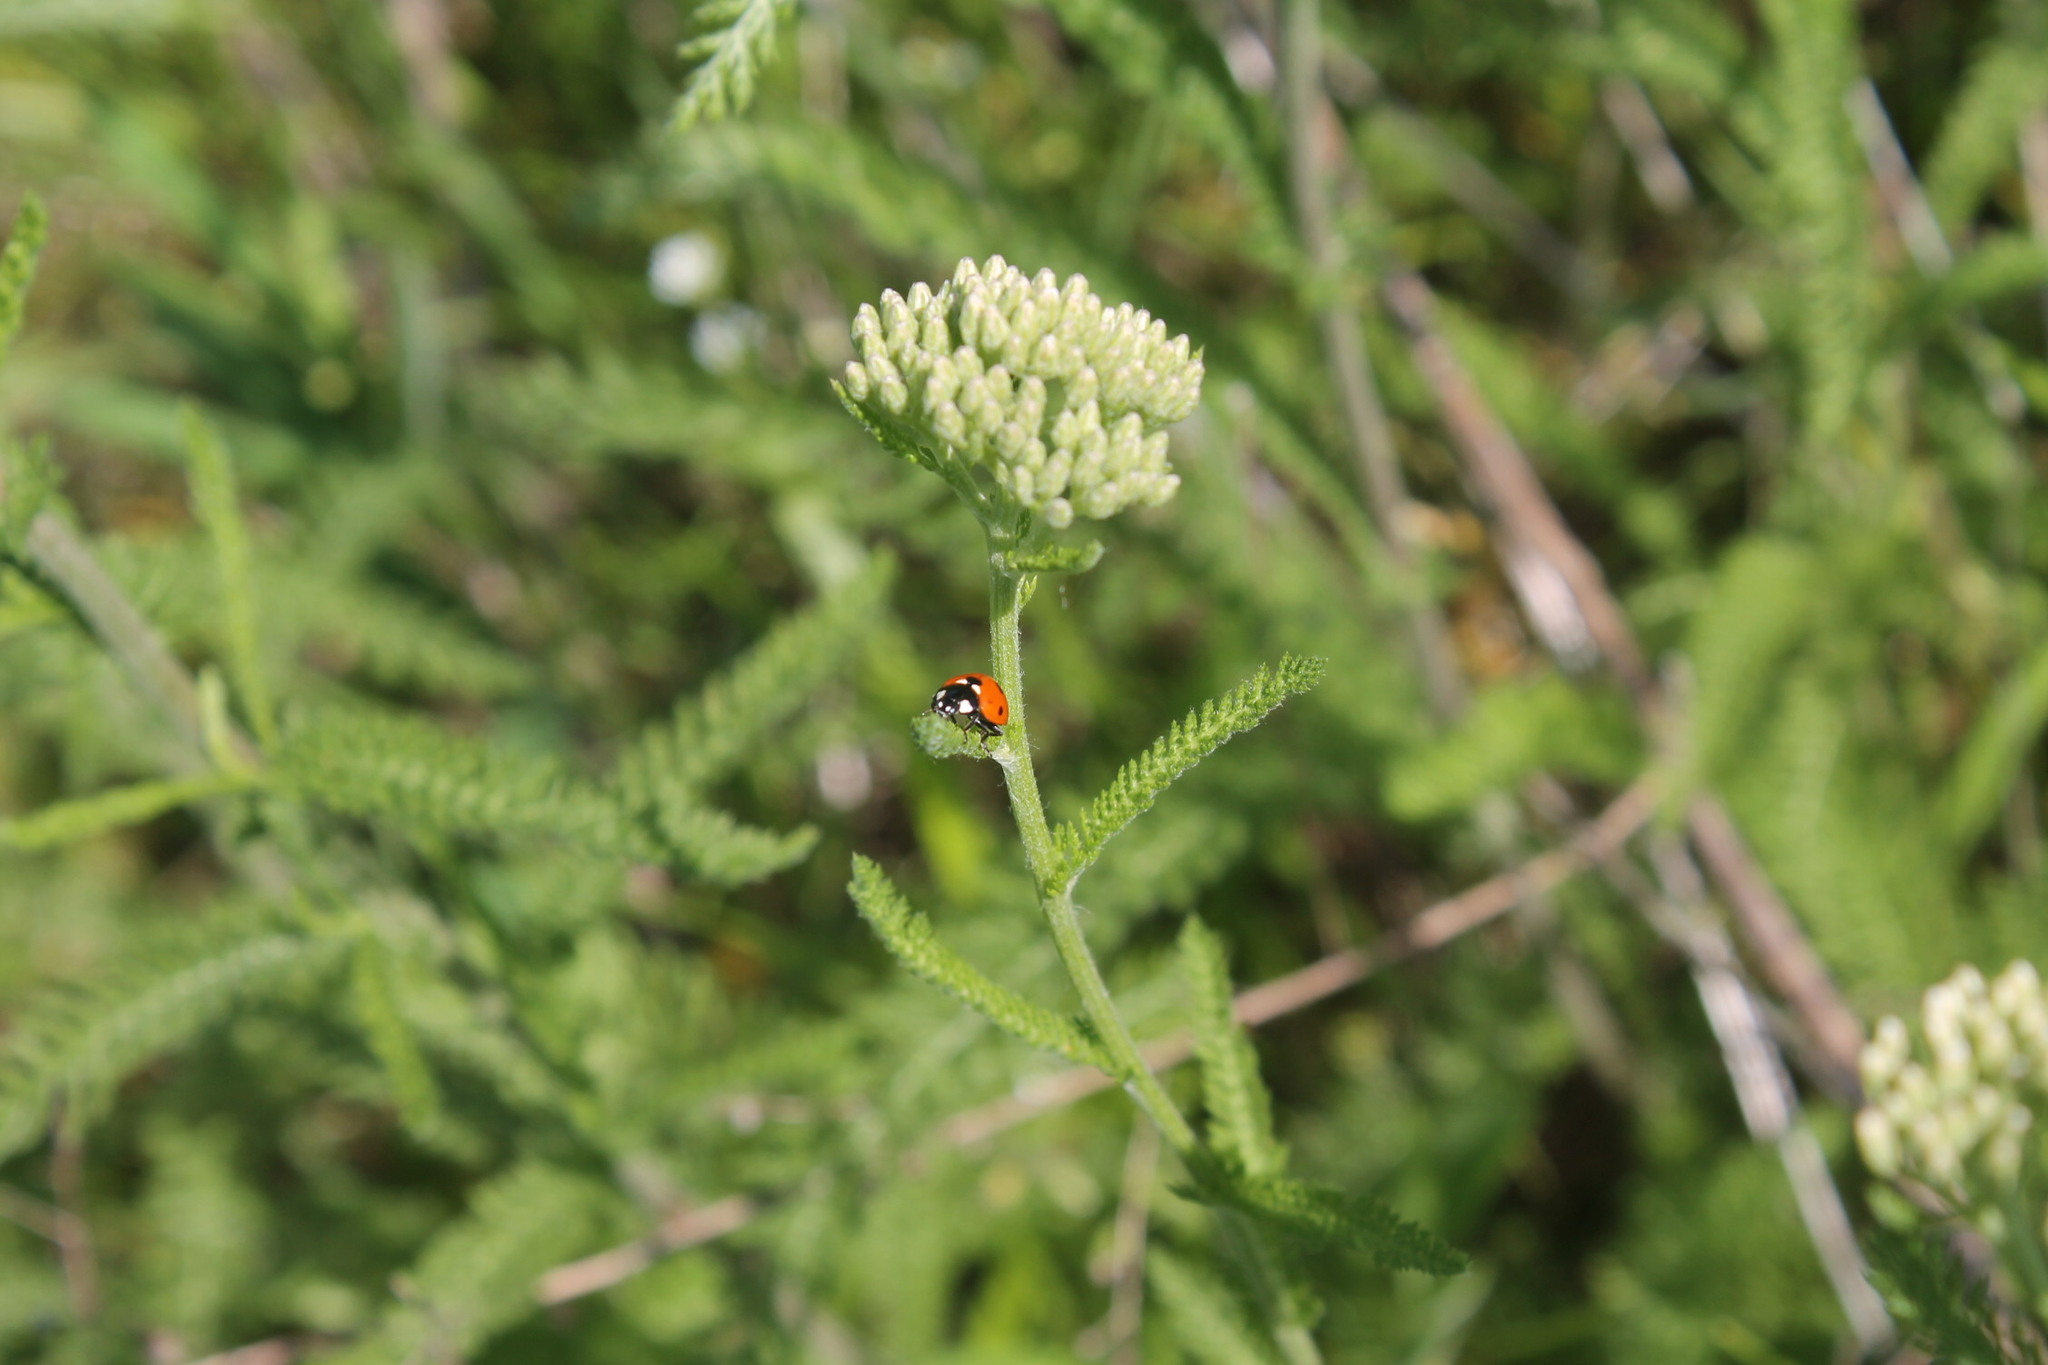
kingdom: Animalia
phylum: Arthropoda
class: Insecta
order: Coleoptera
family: Coccinellidae
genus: Coccinella
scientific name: Coccinella septempunctata
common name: Sevenspotted lady beetle
